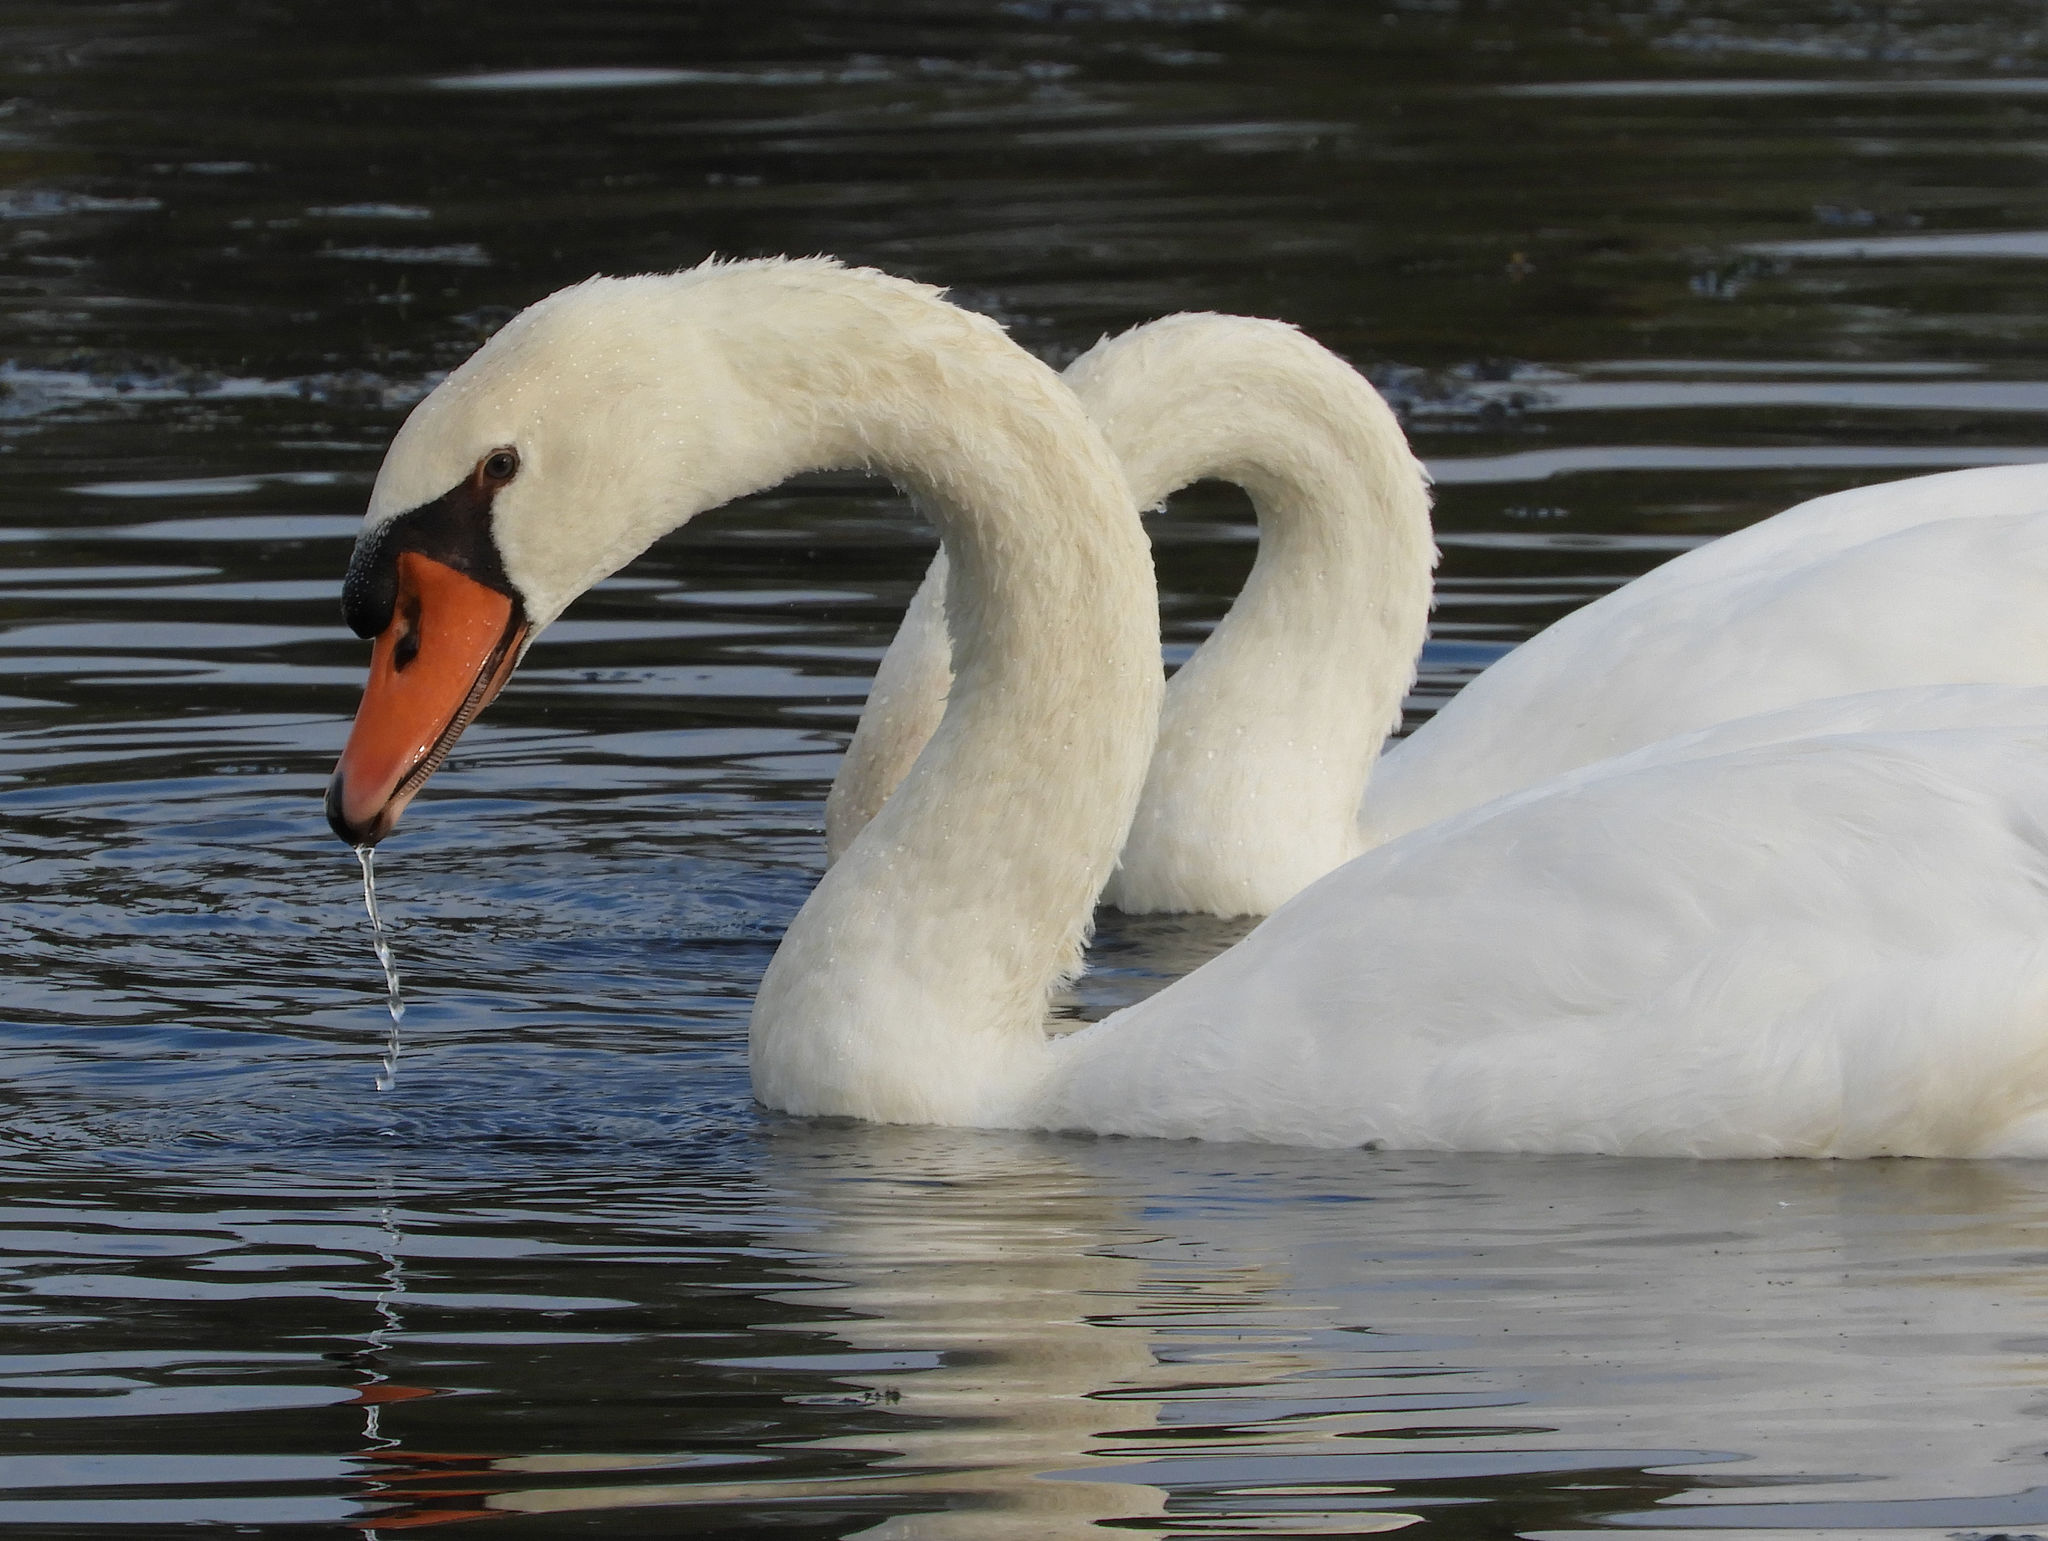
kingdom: Animalia
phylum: Chordata
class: Aves
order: Anseriformes
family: Anatidae
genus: Cygnus
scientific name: Cygnus olor
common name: Mute swan
